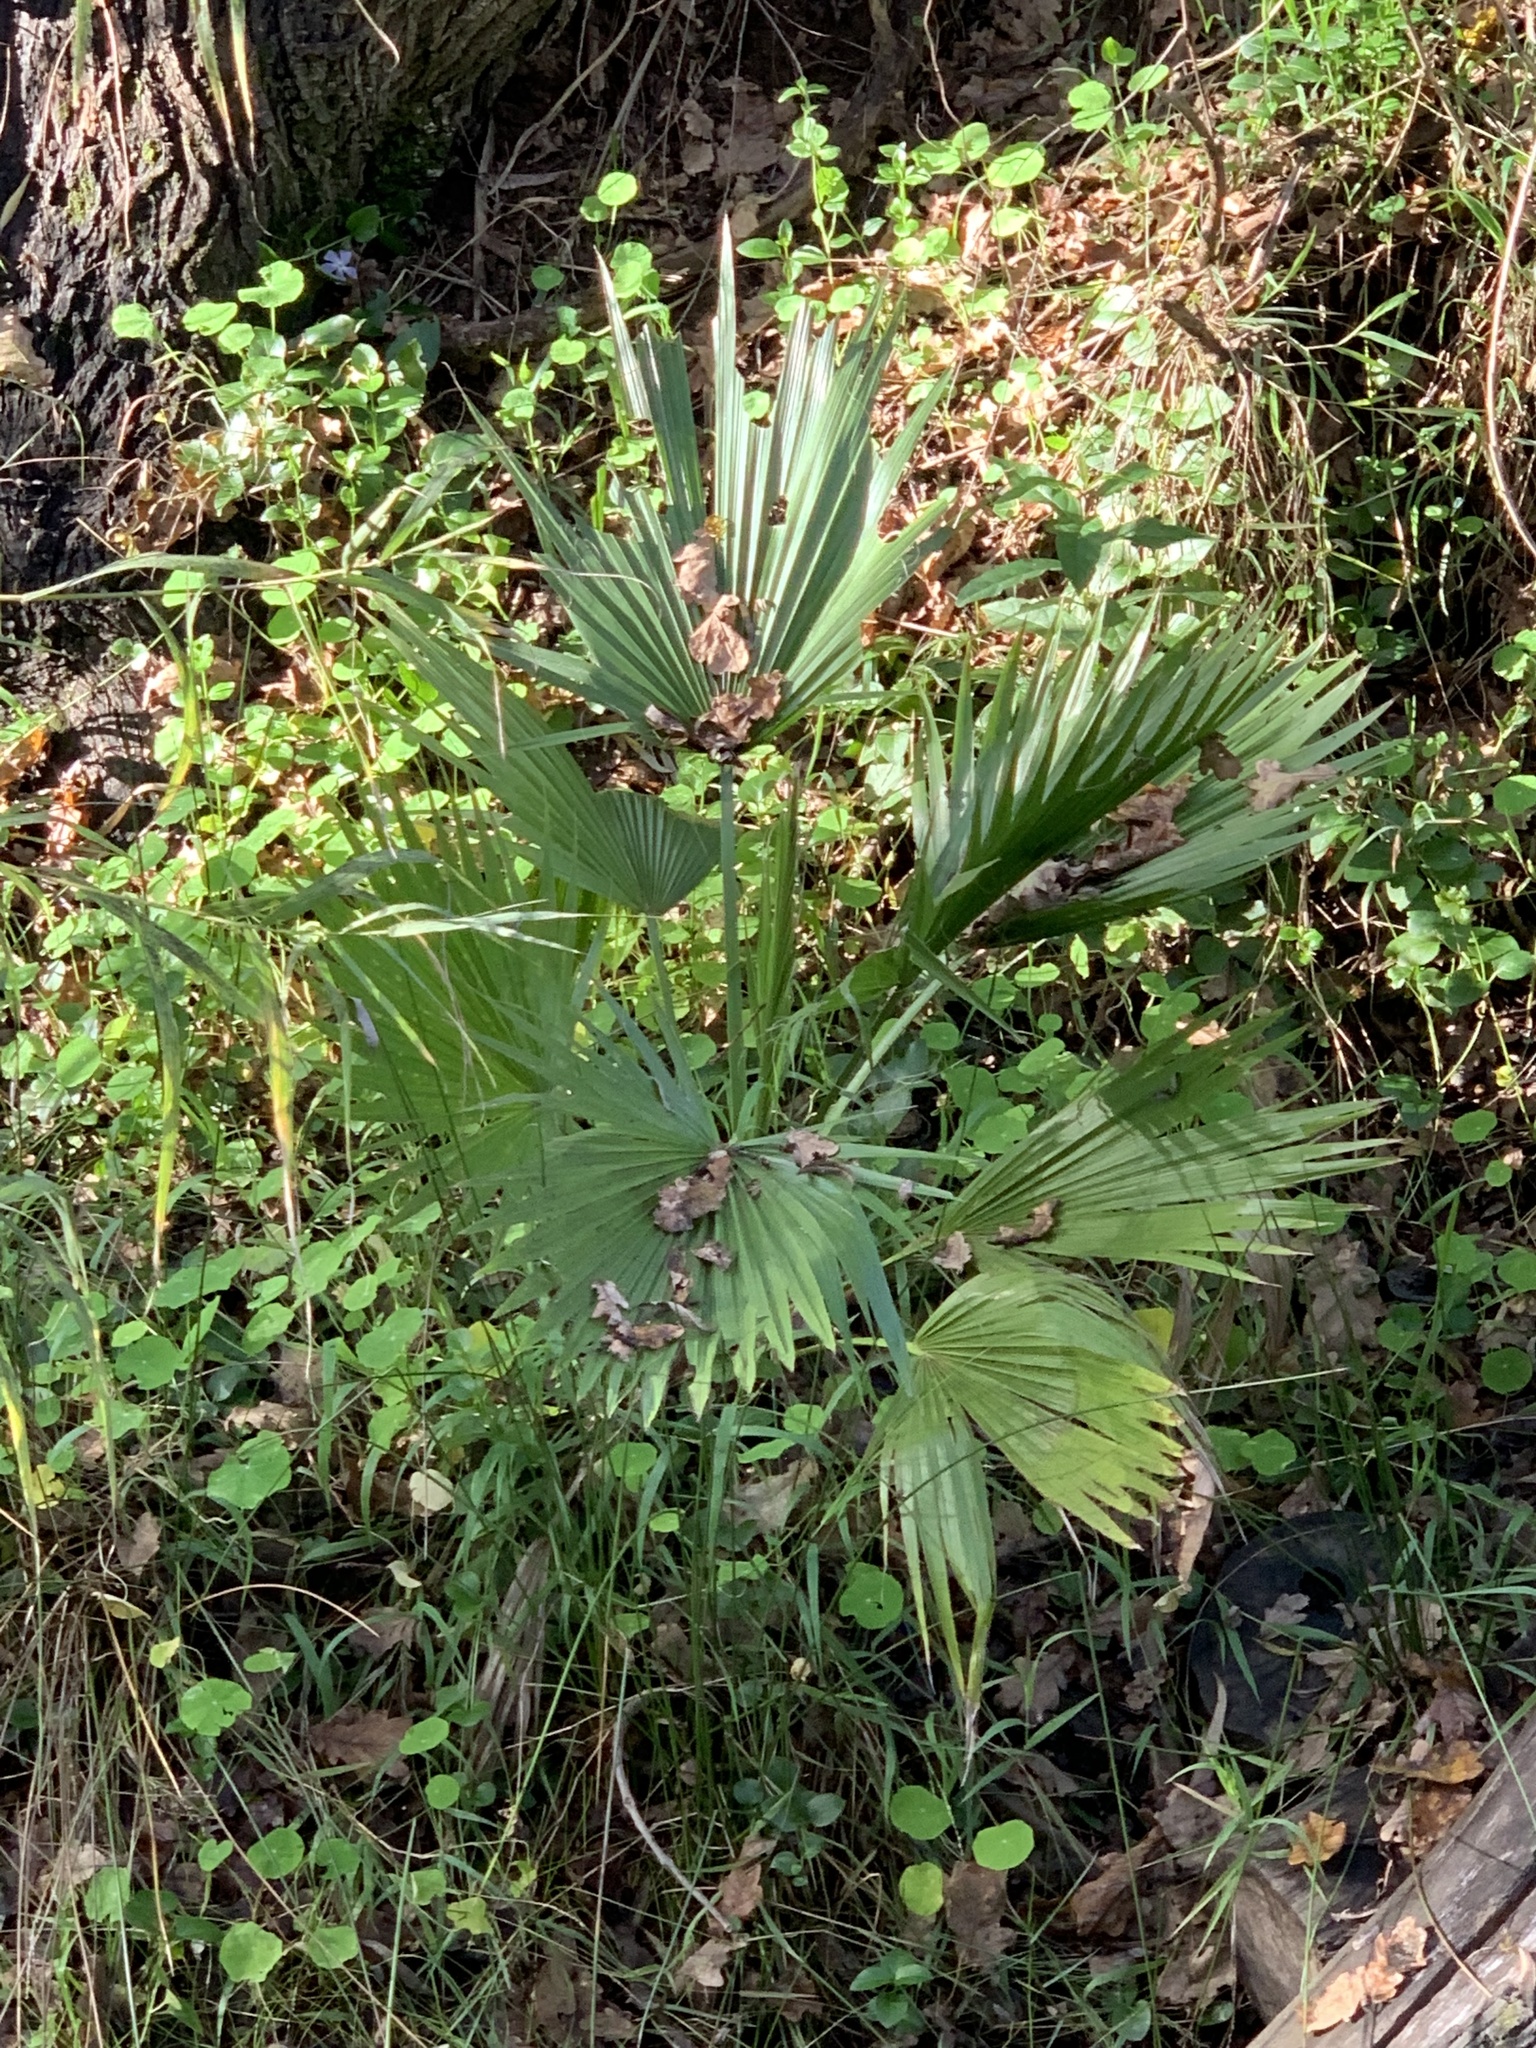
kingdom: Plantae
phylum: Tracheophyta
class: Liliopsida
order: Arecales
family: Arecaceae
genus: Washingtonia
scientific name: Washingtonia robusta
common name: Mexican fan palm
